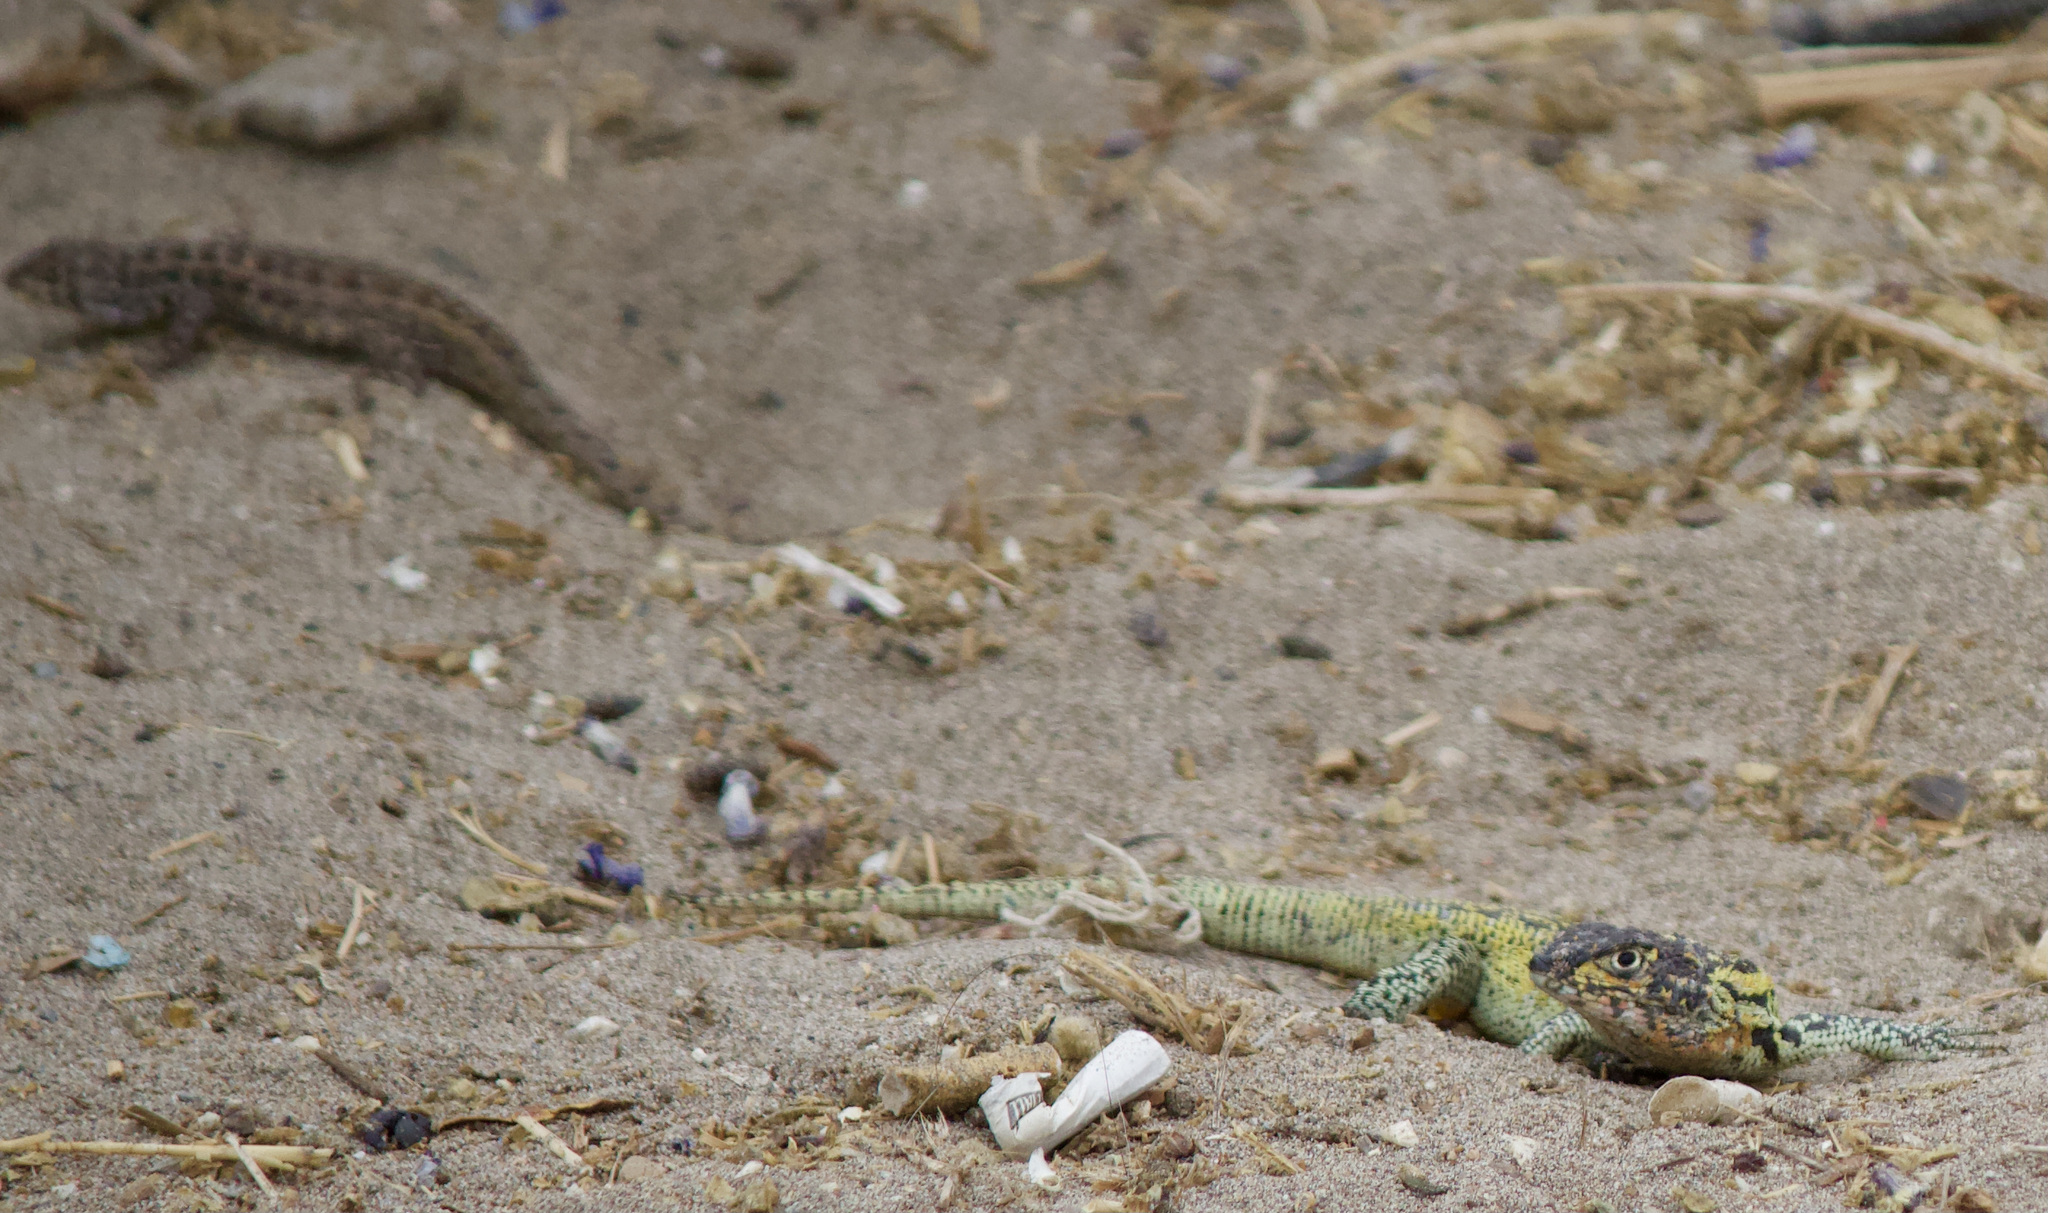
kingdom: Animalia
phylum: Chordata
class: Squamata
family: Liolaemidae
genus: Liolaemus
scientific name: Liolaemus zapallarensis
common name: Zapallaren tree iguana
